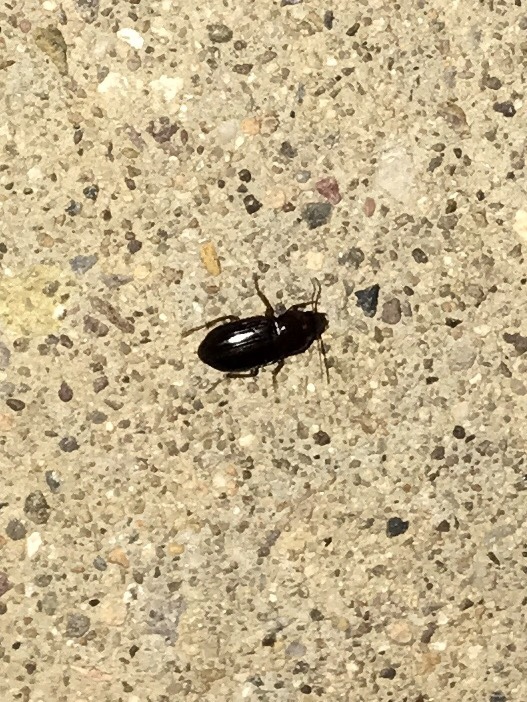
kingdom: Animalia
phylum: Arthropoda
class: Insecta
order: Coleoptera
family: Carabidae
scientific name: Carabidae
